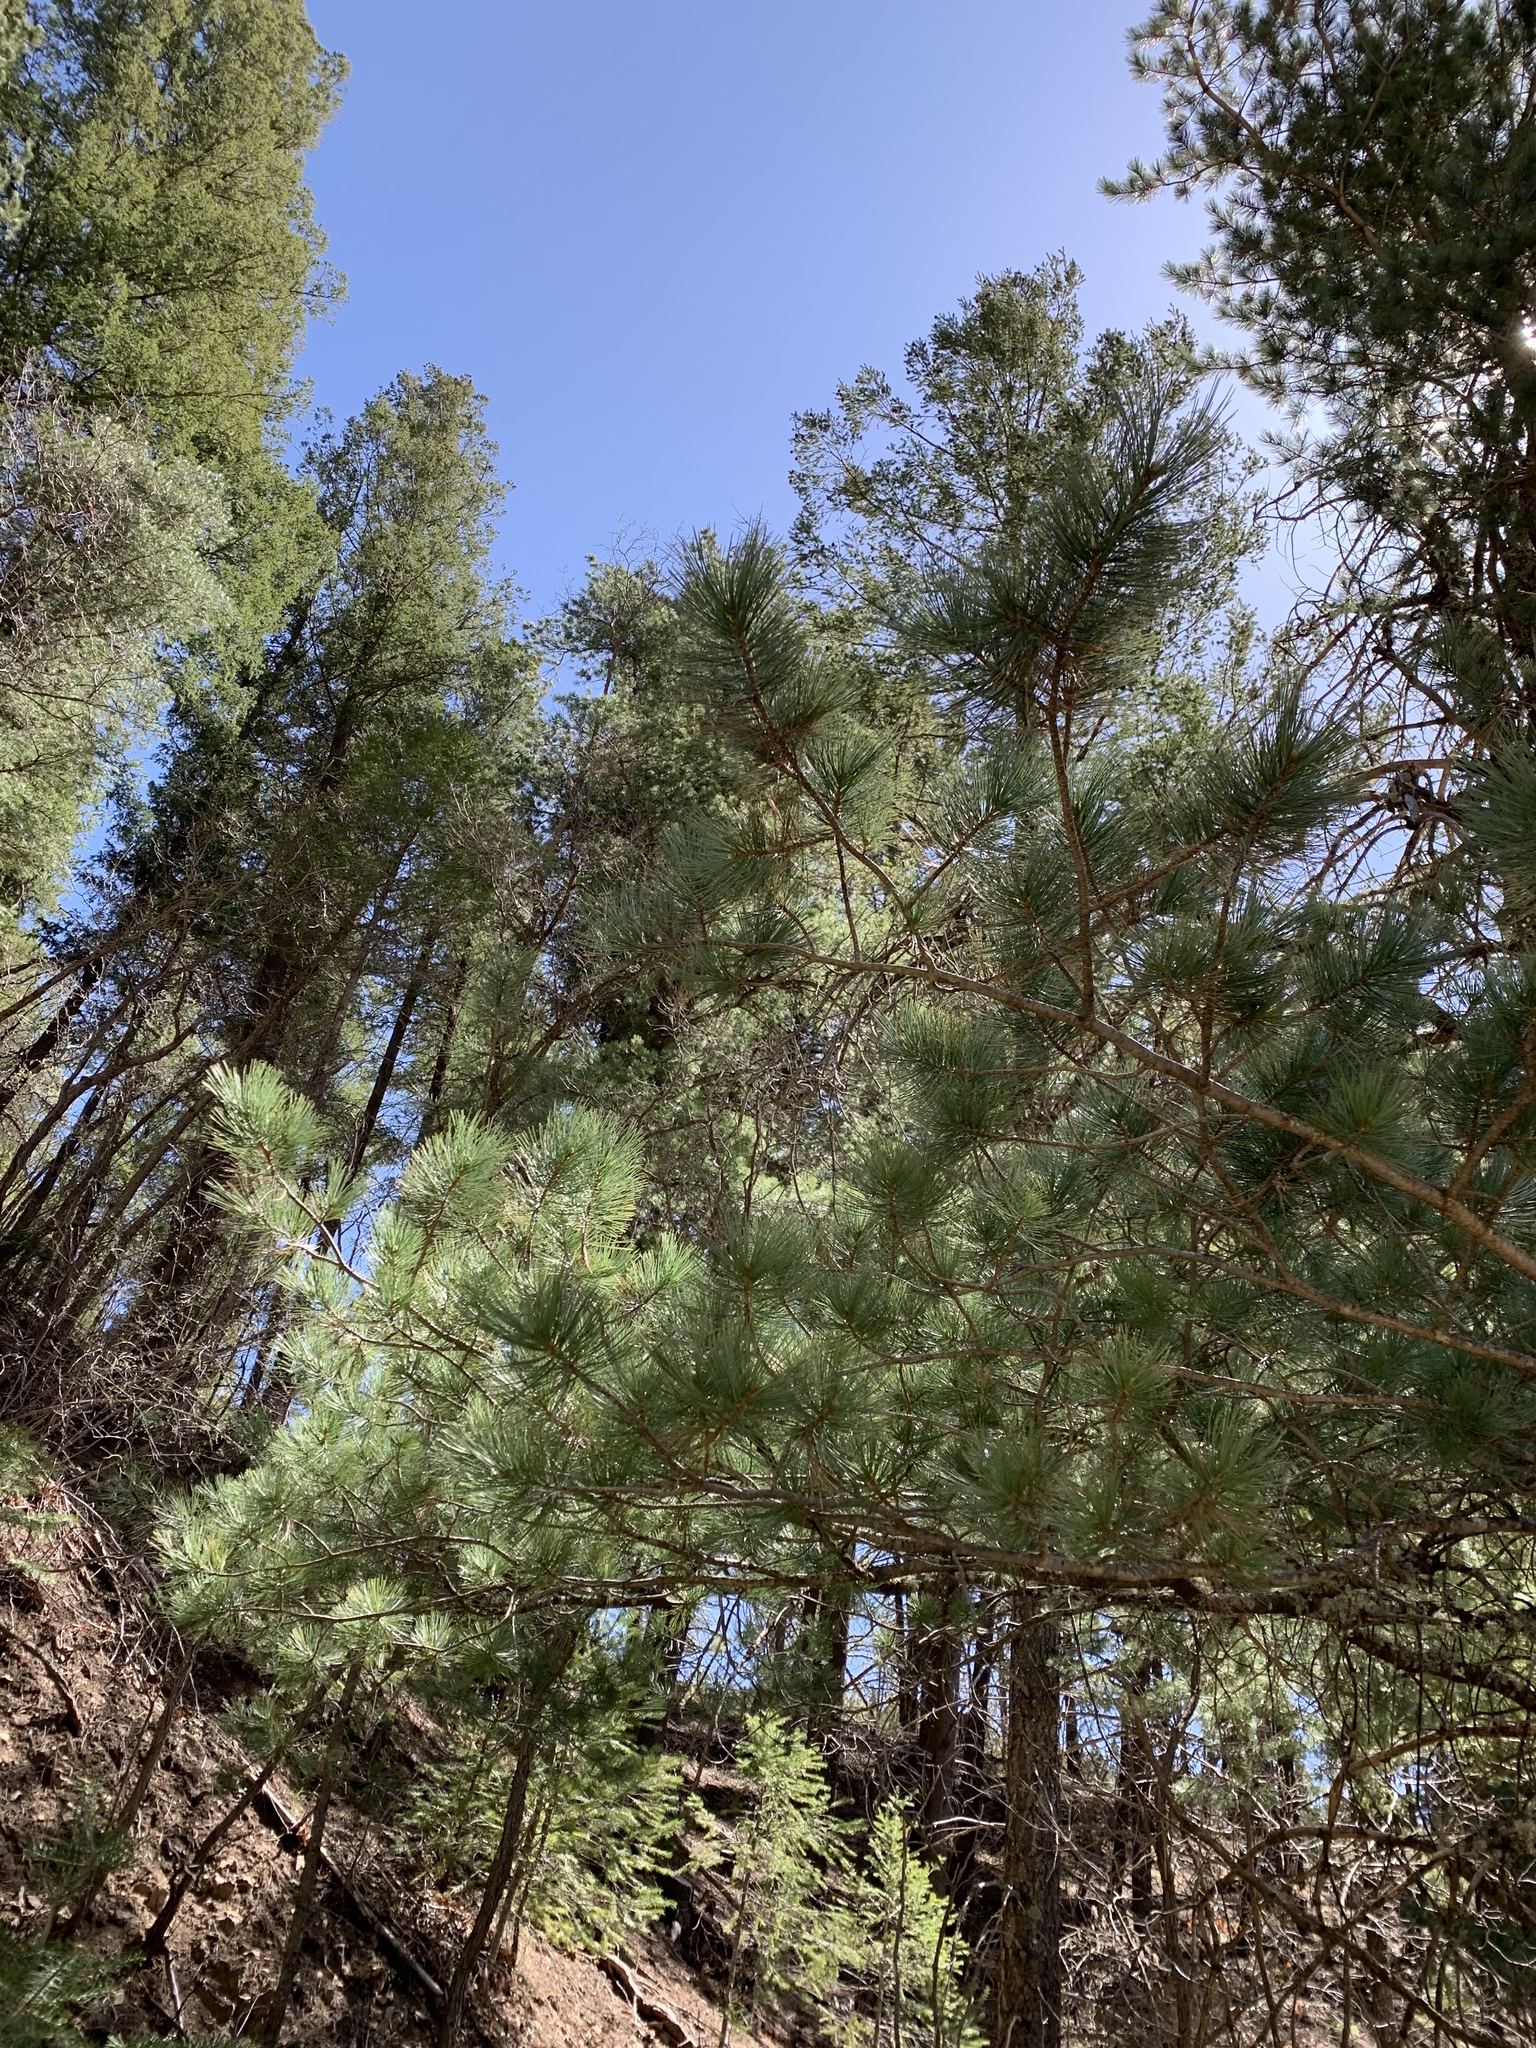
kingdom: Plantae
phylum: Tracheophyta
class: Pinopsida
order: Pinales
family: Pinaceae
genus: Pinus
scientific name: Pinus strobiformis
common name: Southwestern white pine
